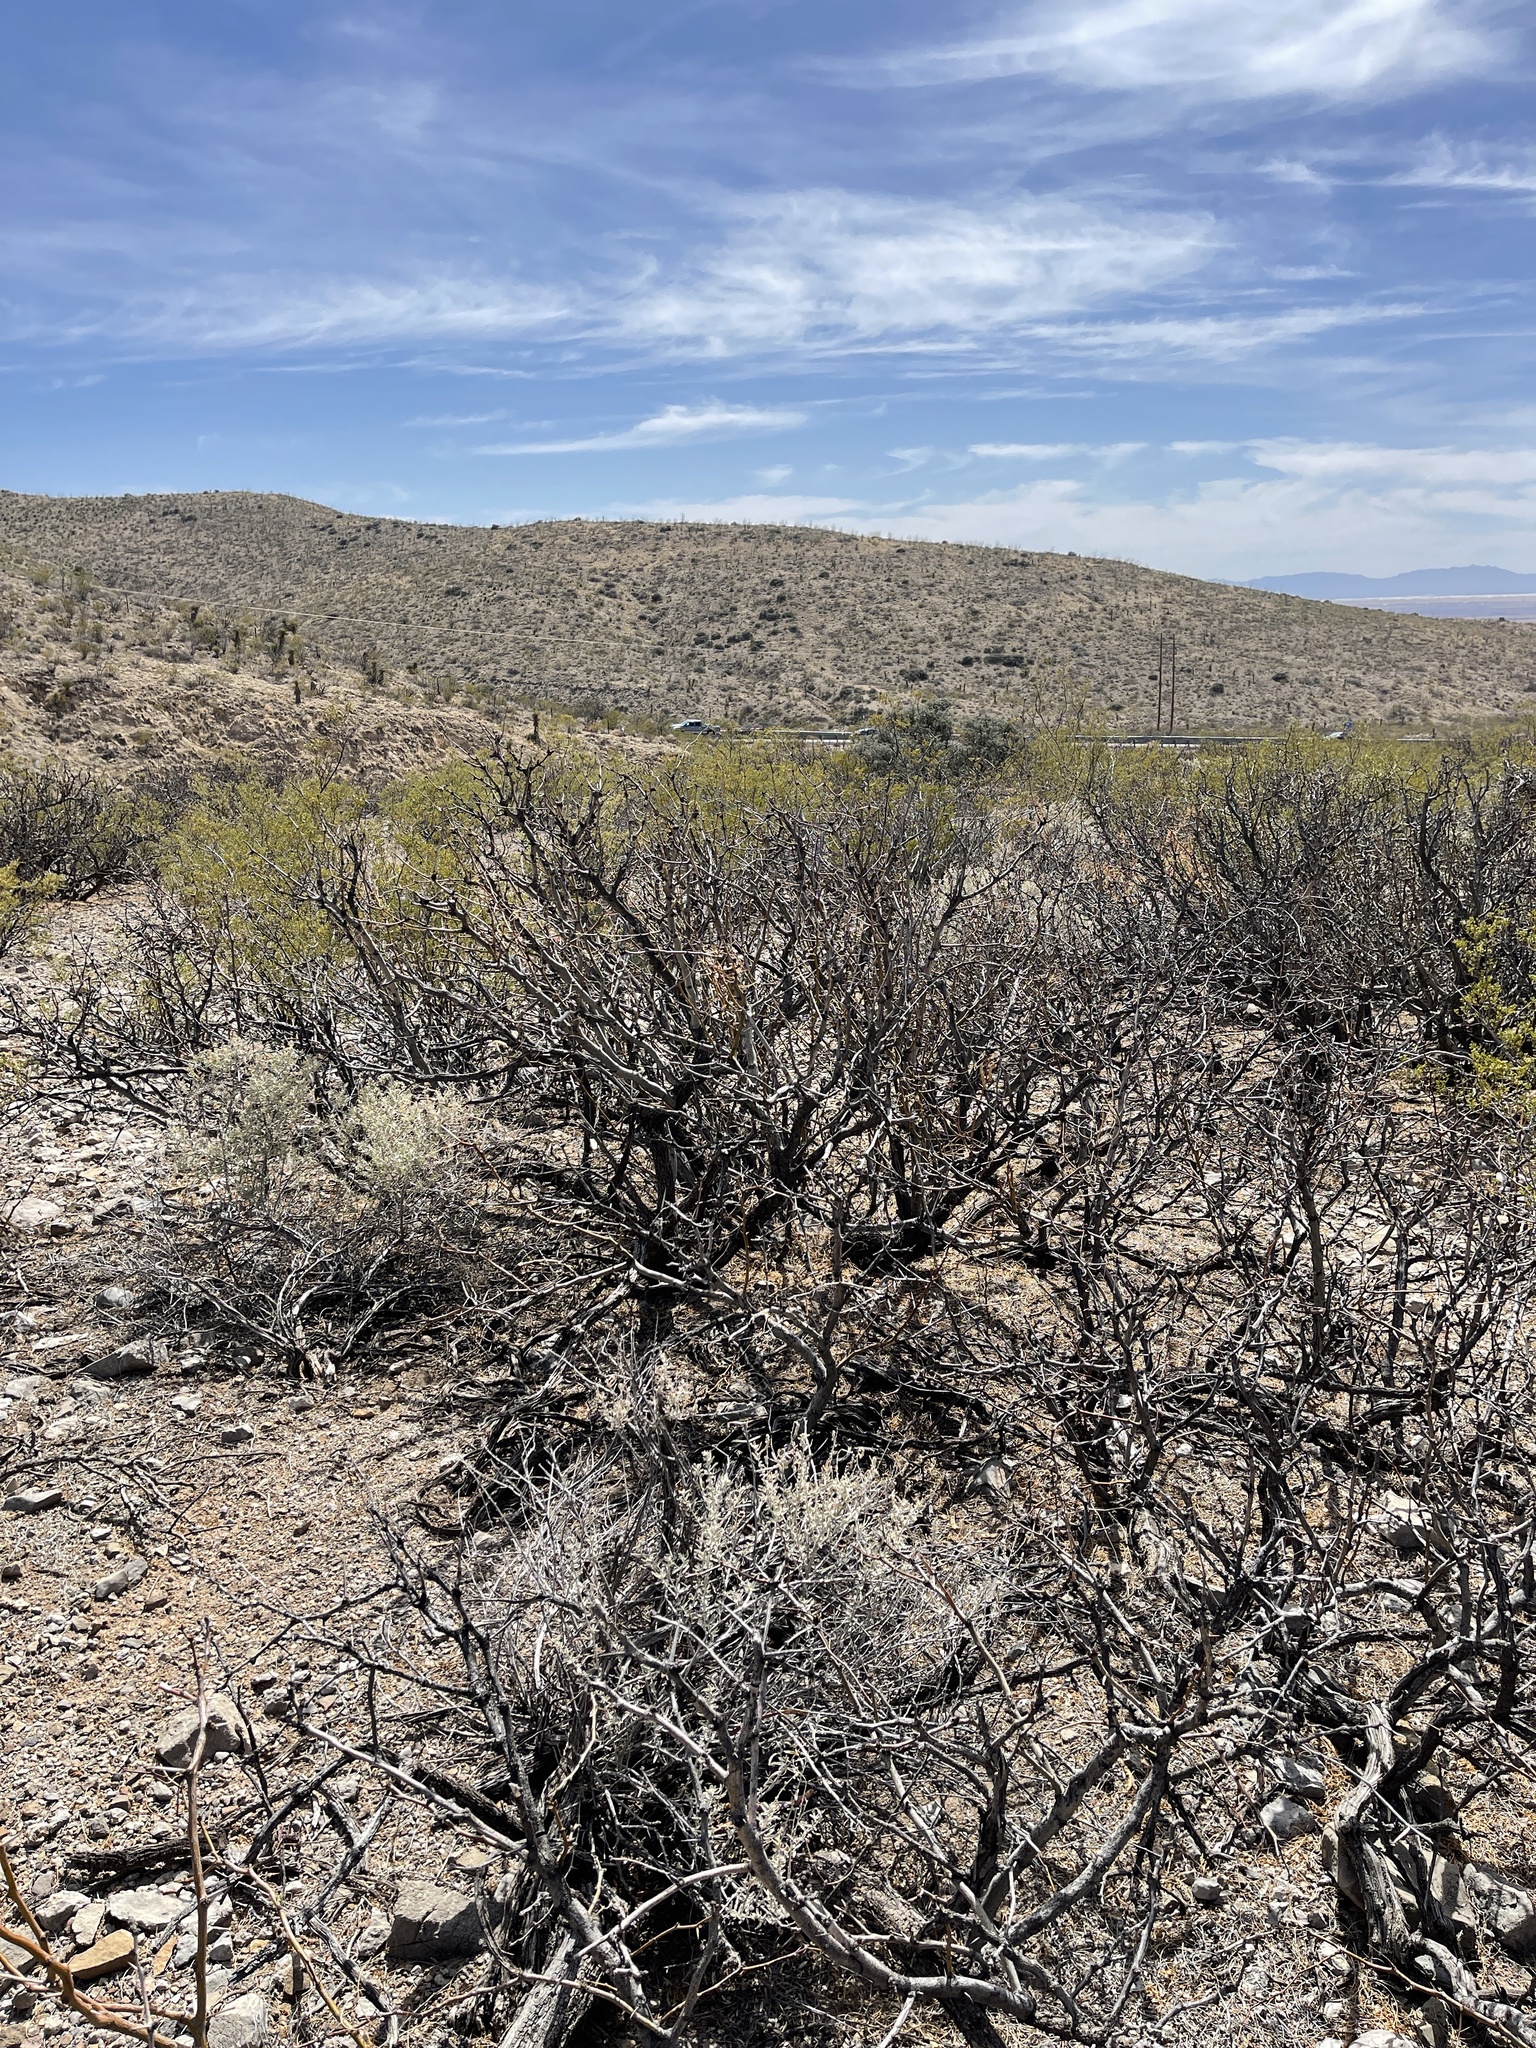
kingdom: Plantae
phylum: Tracheophyta
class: Magnoliopsida
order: Fabales
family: Fabaceae
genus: Prosopis
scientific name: Prosopis glandulosa
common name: Honey mesquite
